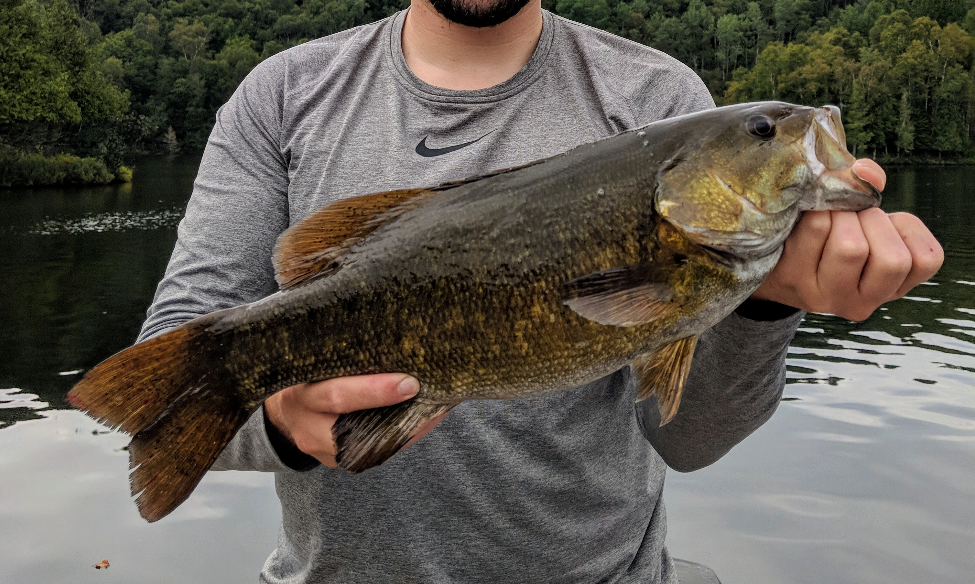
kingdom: Animalia
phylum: Chordata
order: Perciformes
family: Centrarchidae
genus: Micropterus
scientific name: Micropterus dolomieu
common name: Smallmouth bass
